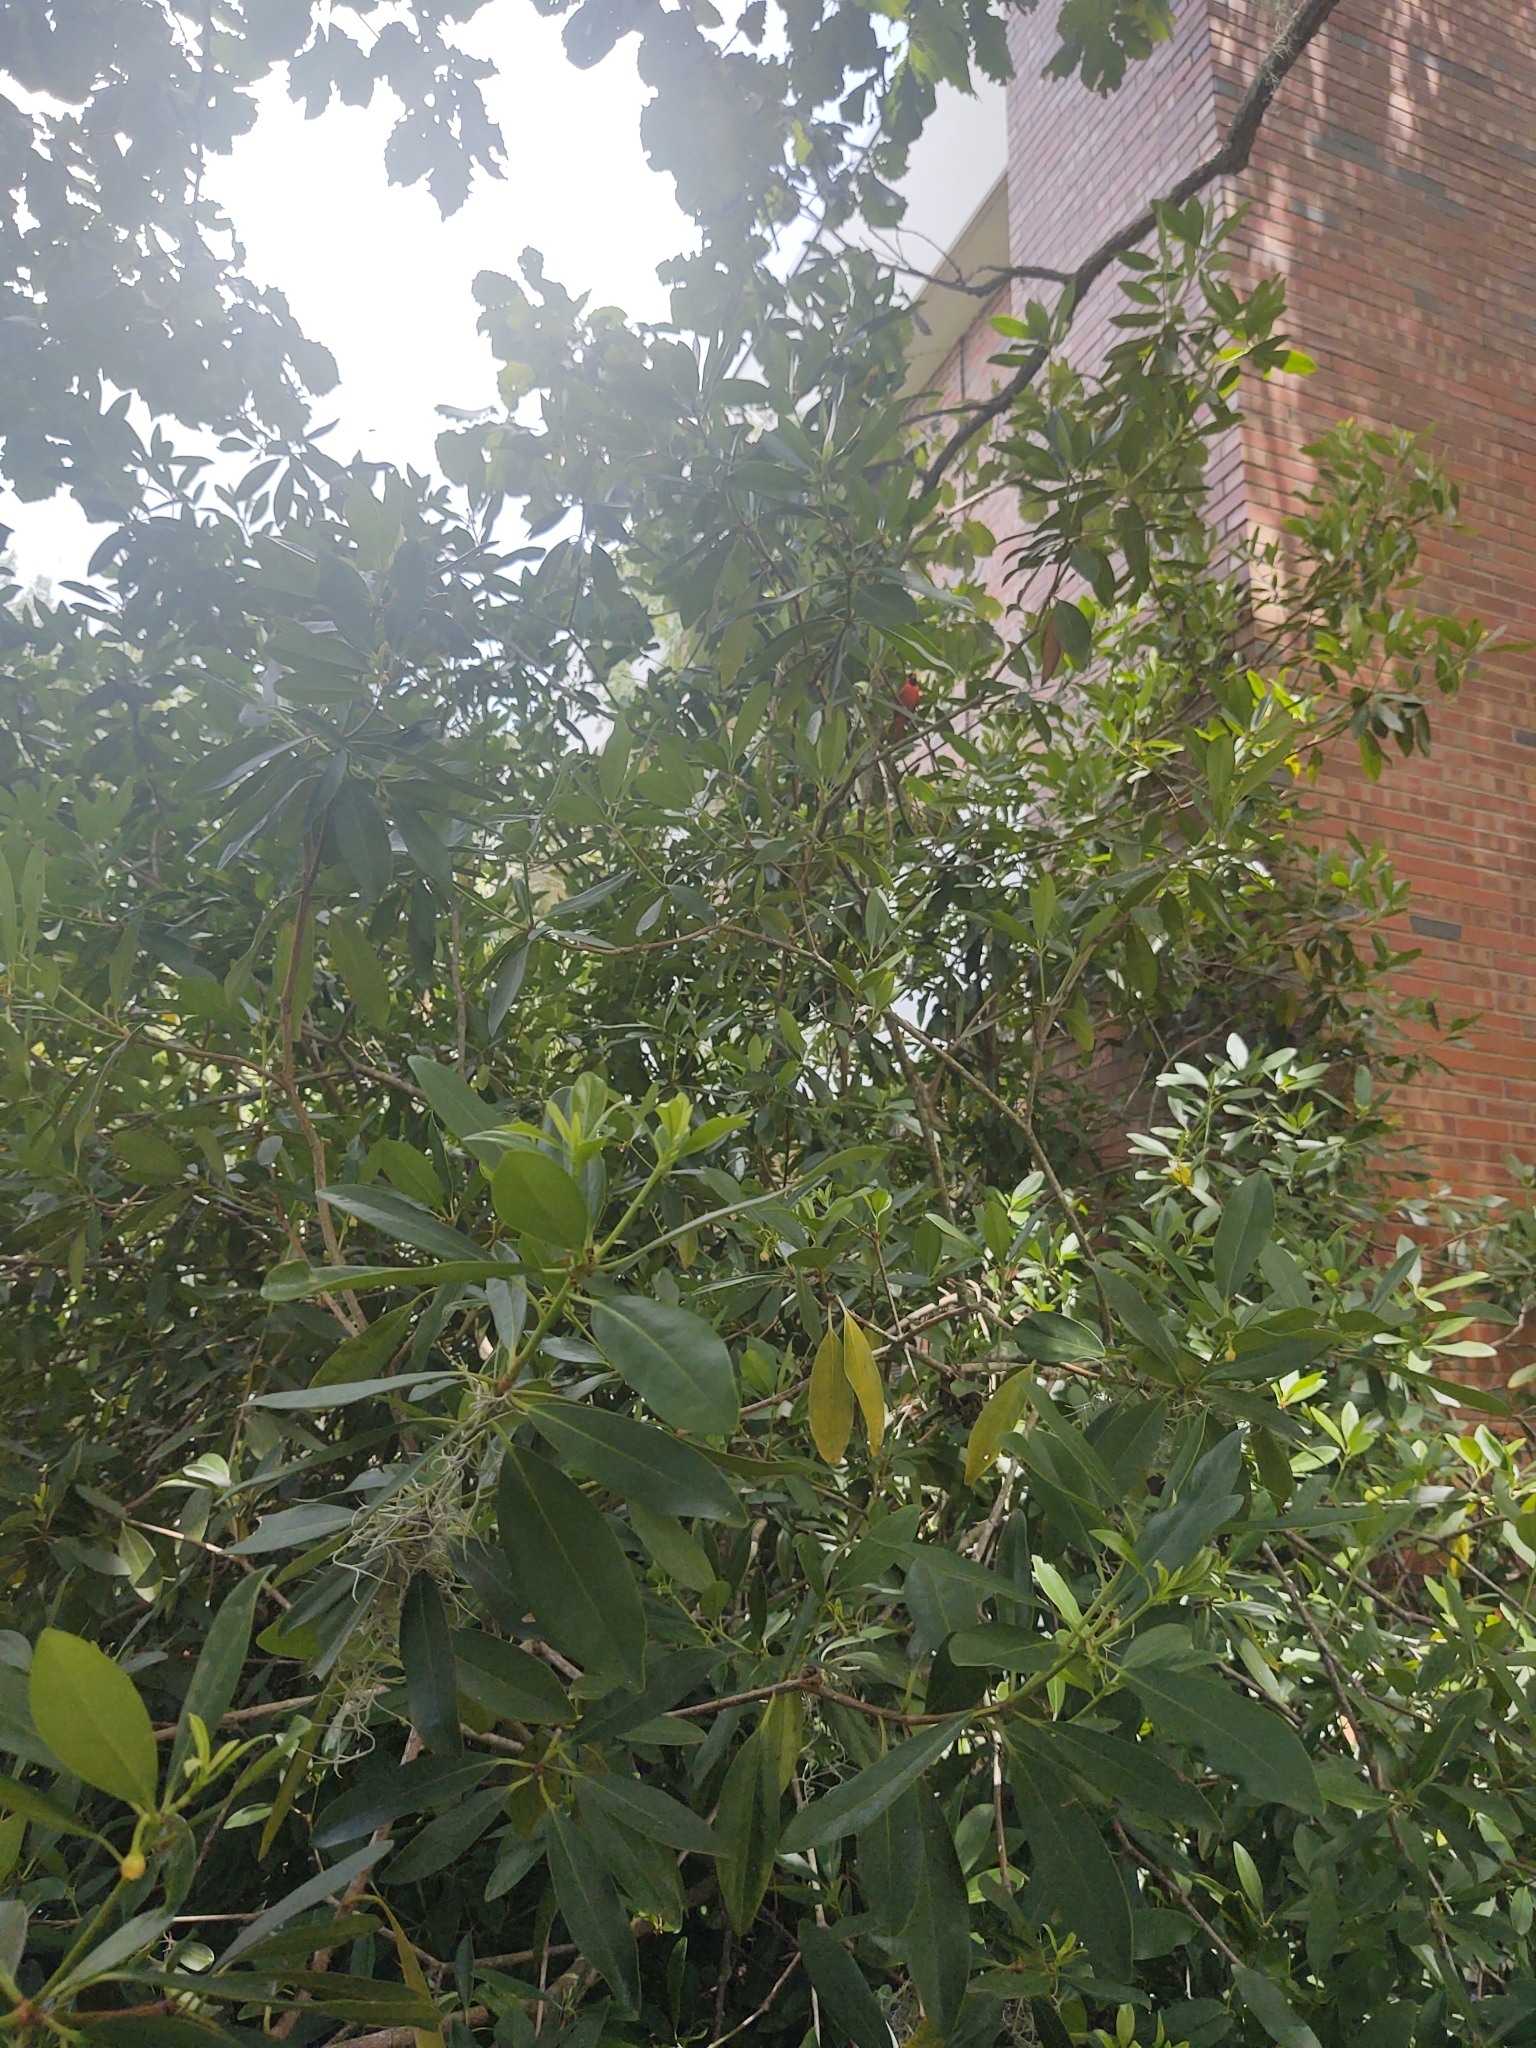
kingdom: Animalia
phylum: Chordata
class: Aves
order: Passeriformes
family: Cardinalidae
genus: Cardinalis
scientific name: Cardinalis cardinalis
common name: Northern cardinal
